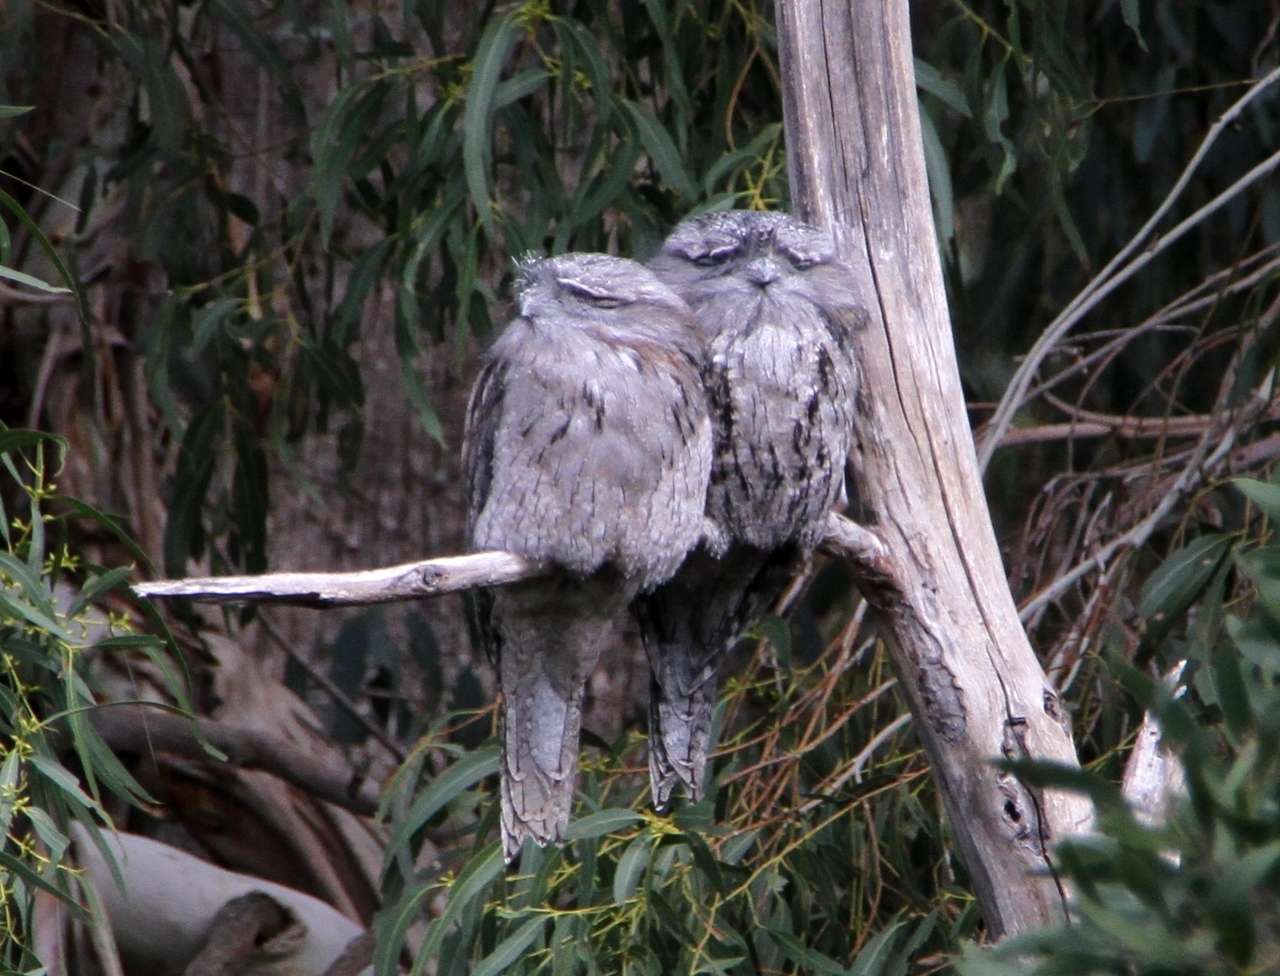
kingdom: Animalia
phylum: Chordata
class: Aves
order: Caprimulgiformes
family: Podargidae
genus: Podargus
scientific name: Podargus strigoides
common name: Tawny frogmouth
